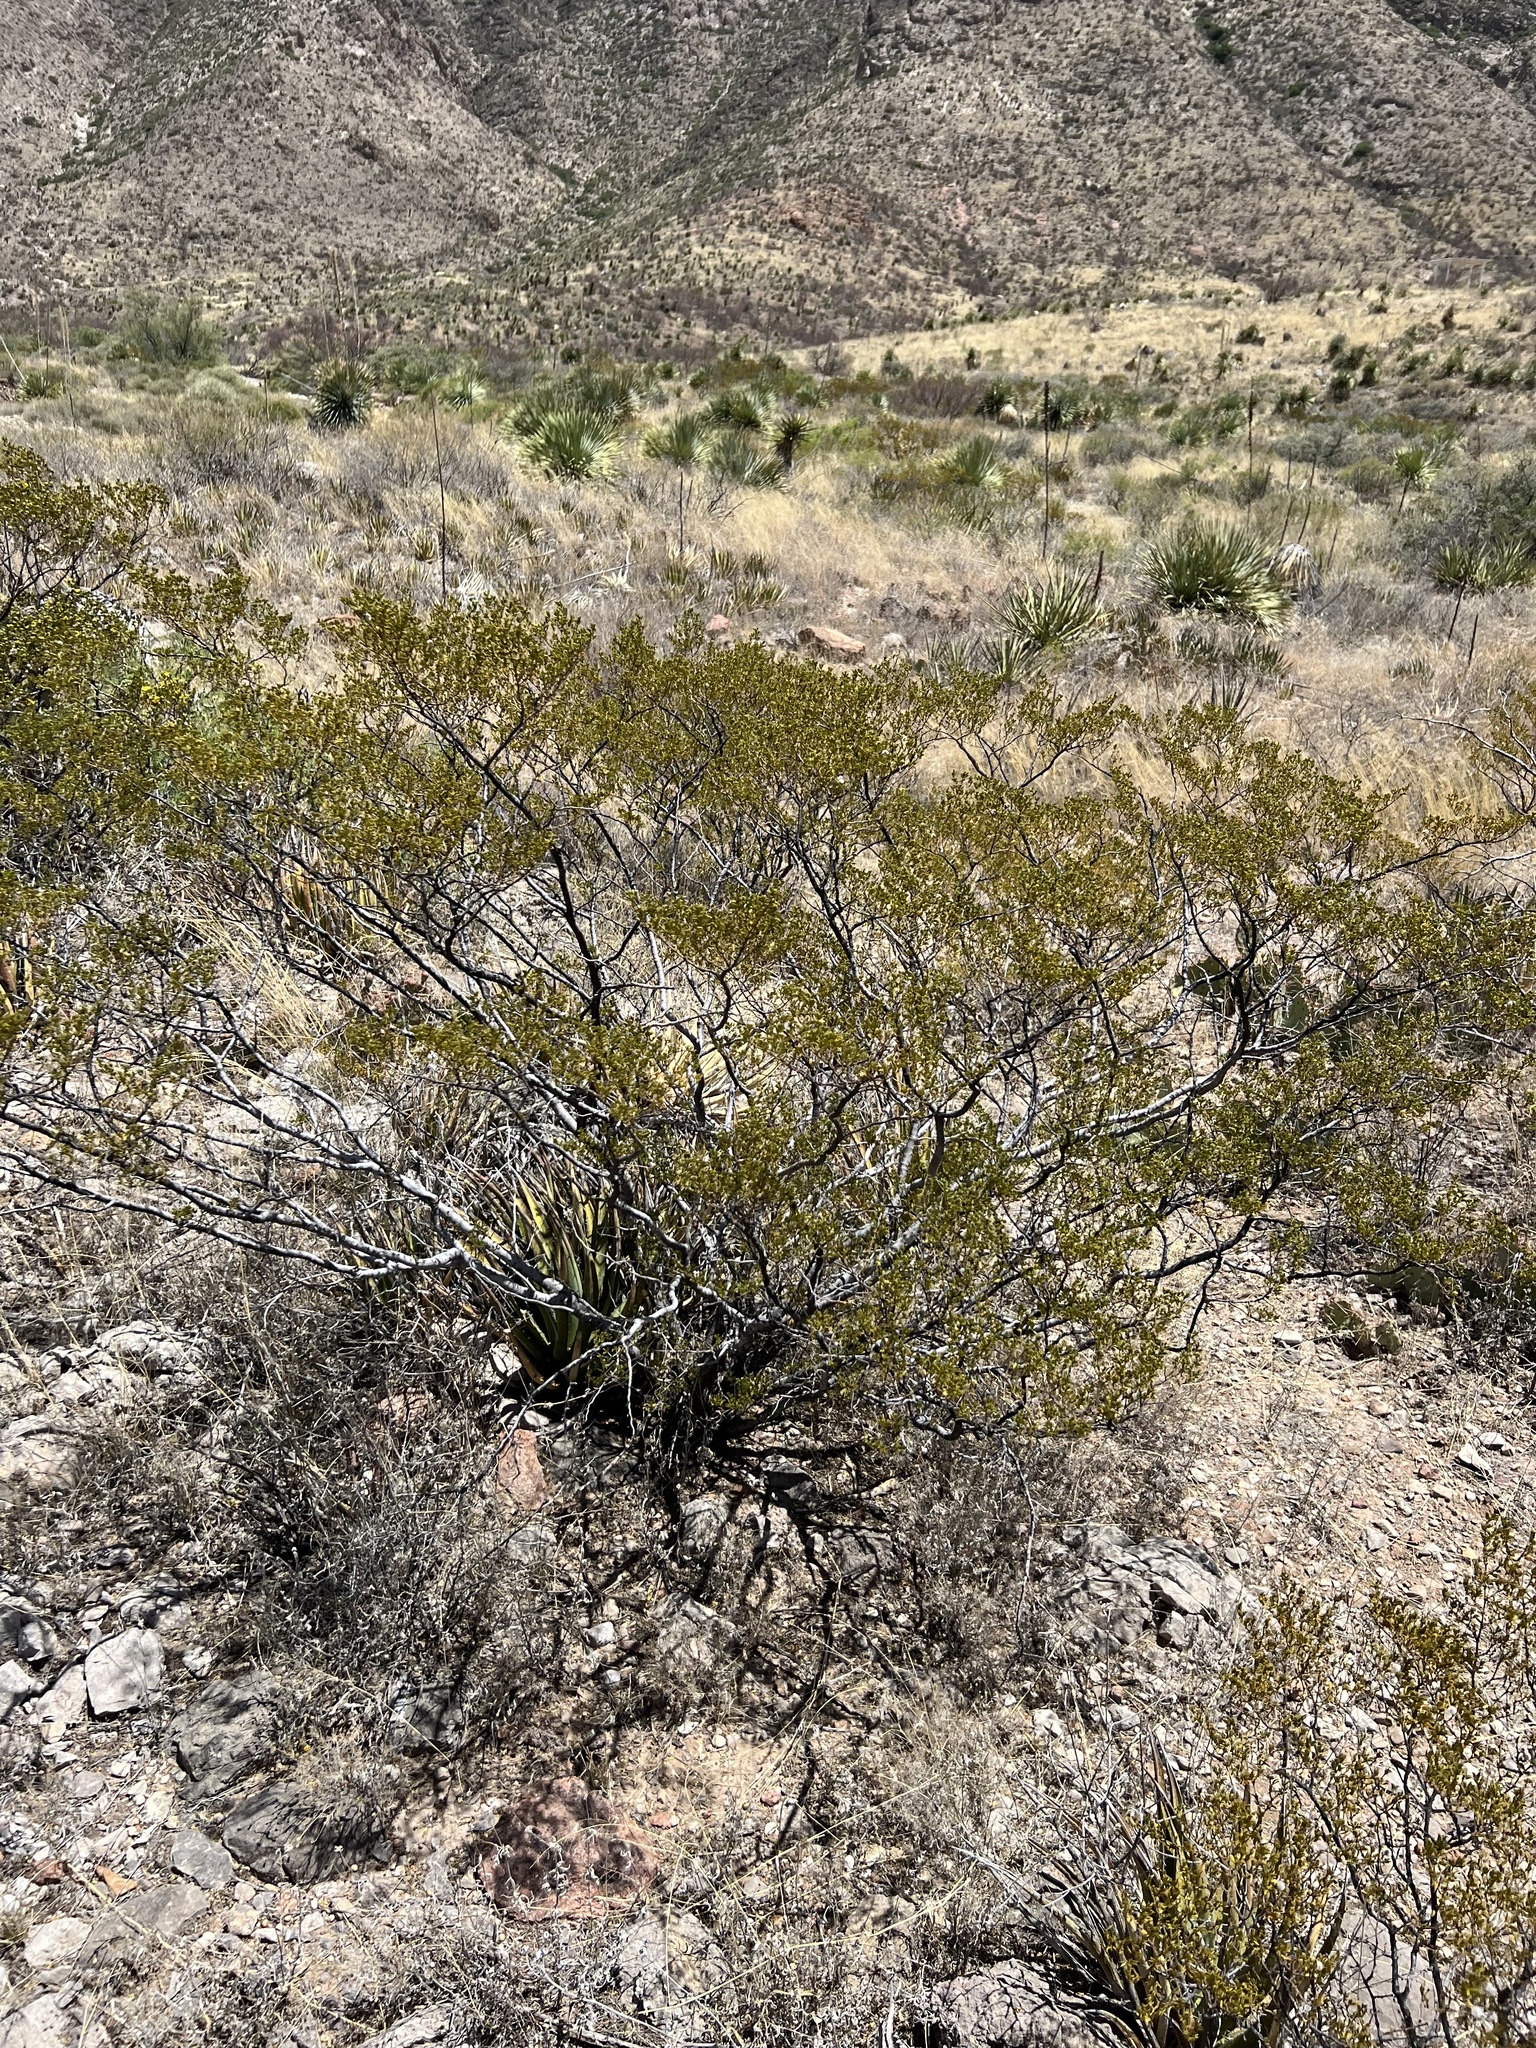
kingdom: Plantae
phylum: Tracheophyta
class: Magnoliopsida
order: Zygophyllales
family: Zygophyllaceae
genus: Larrea
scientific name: Larrea tridentata
